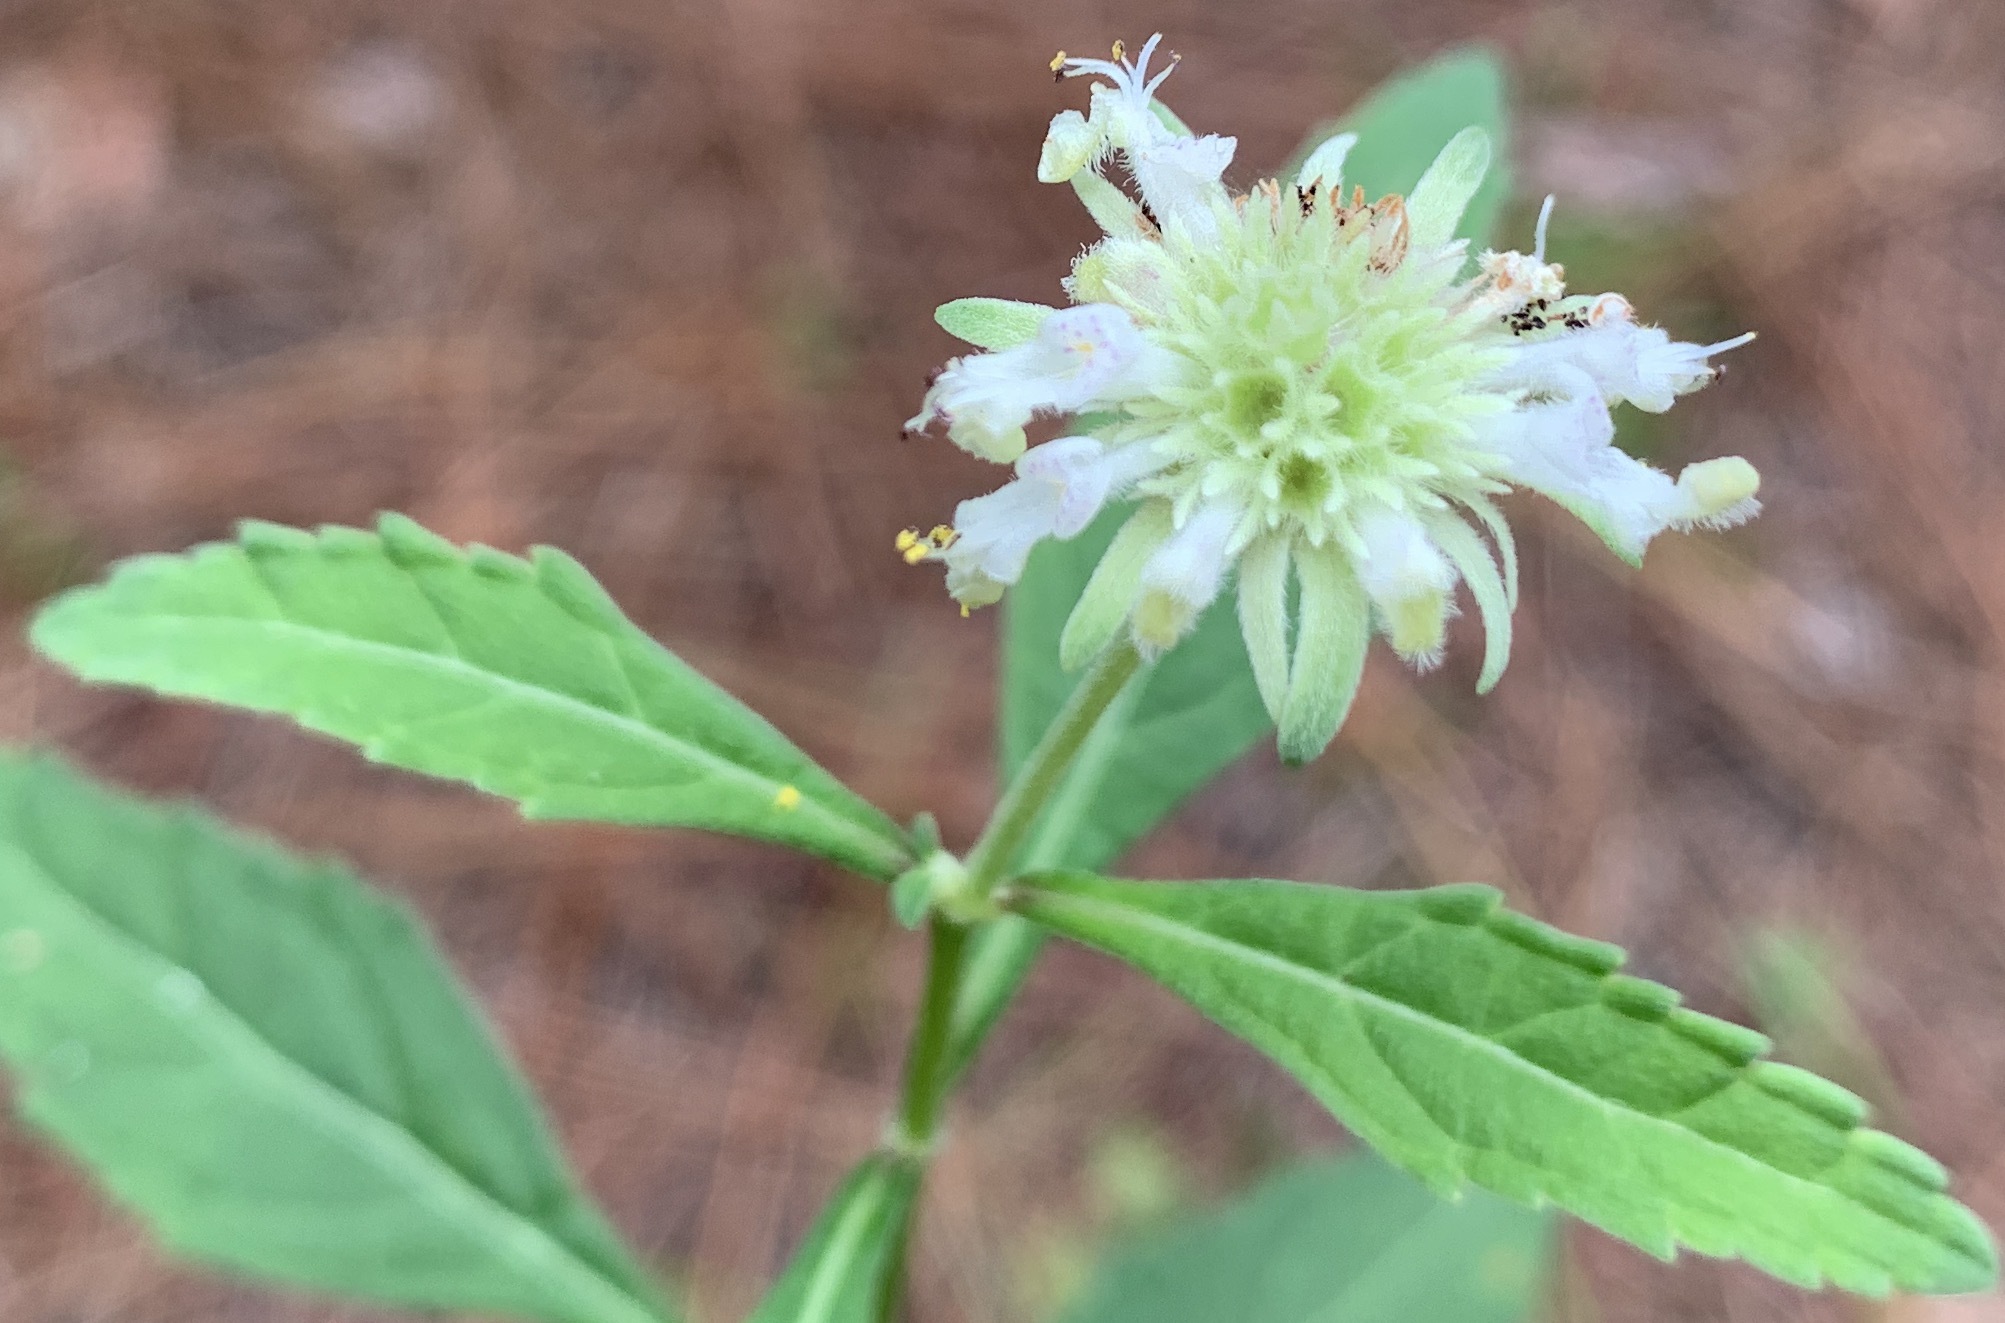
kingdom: Plantae
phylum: Tracheophyta
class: Magnoliopsida
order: Lamiales
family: Lamiaceae
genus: Hyptis
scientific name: Hyptis alata
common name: Cluster bush-mint
